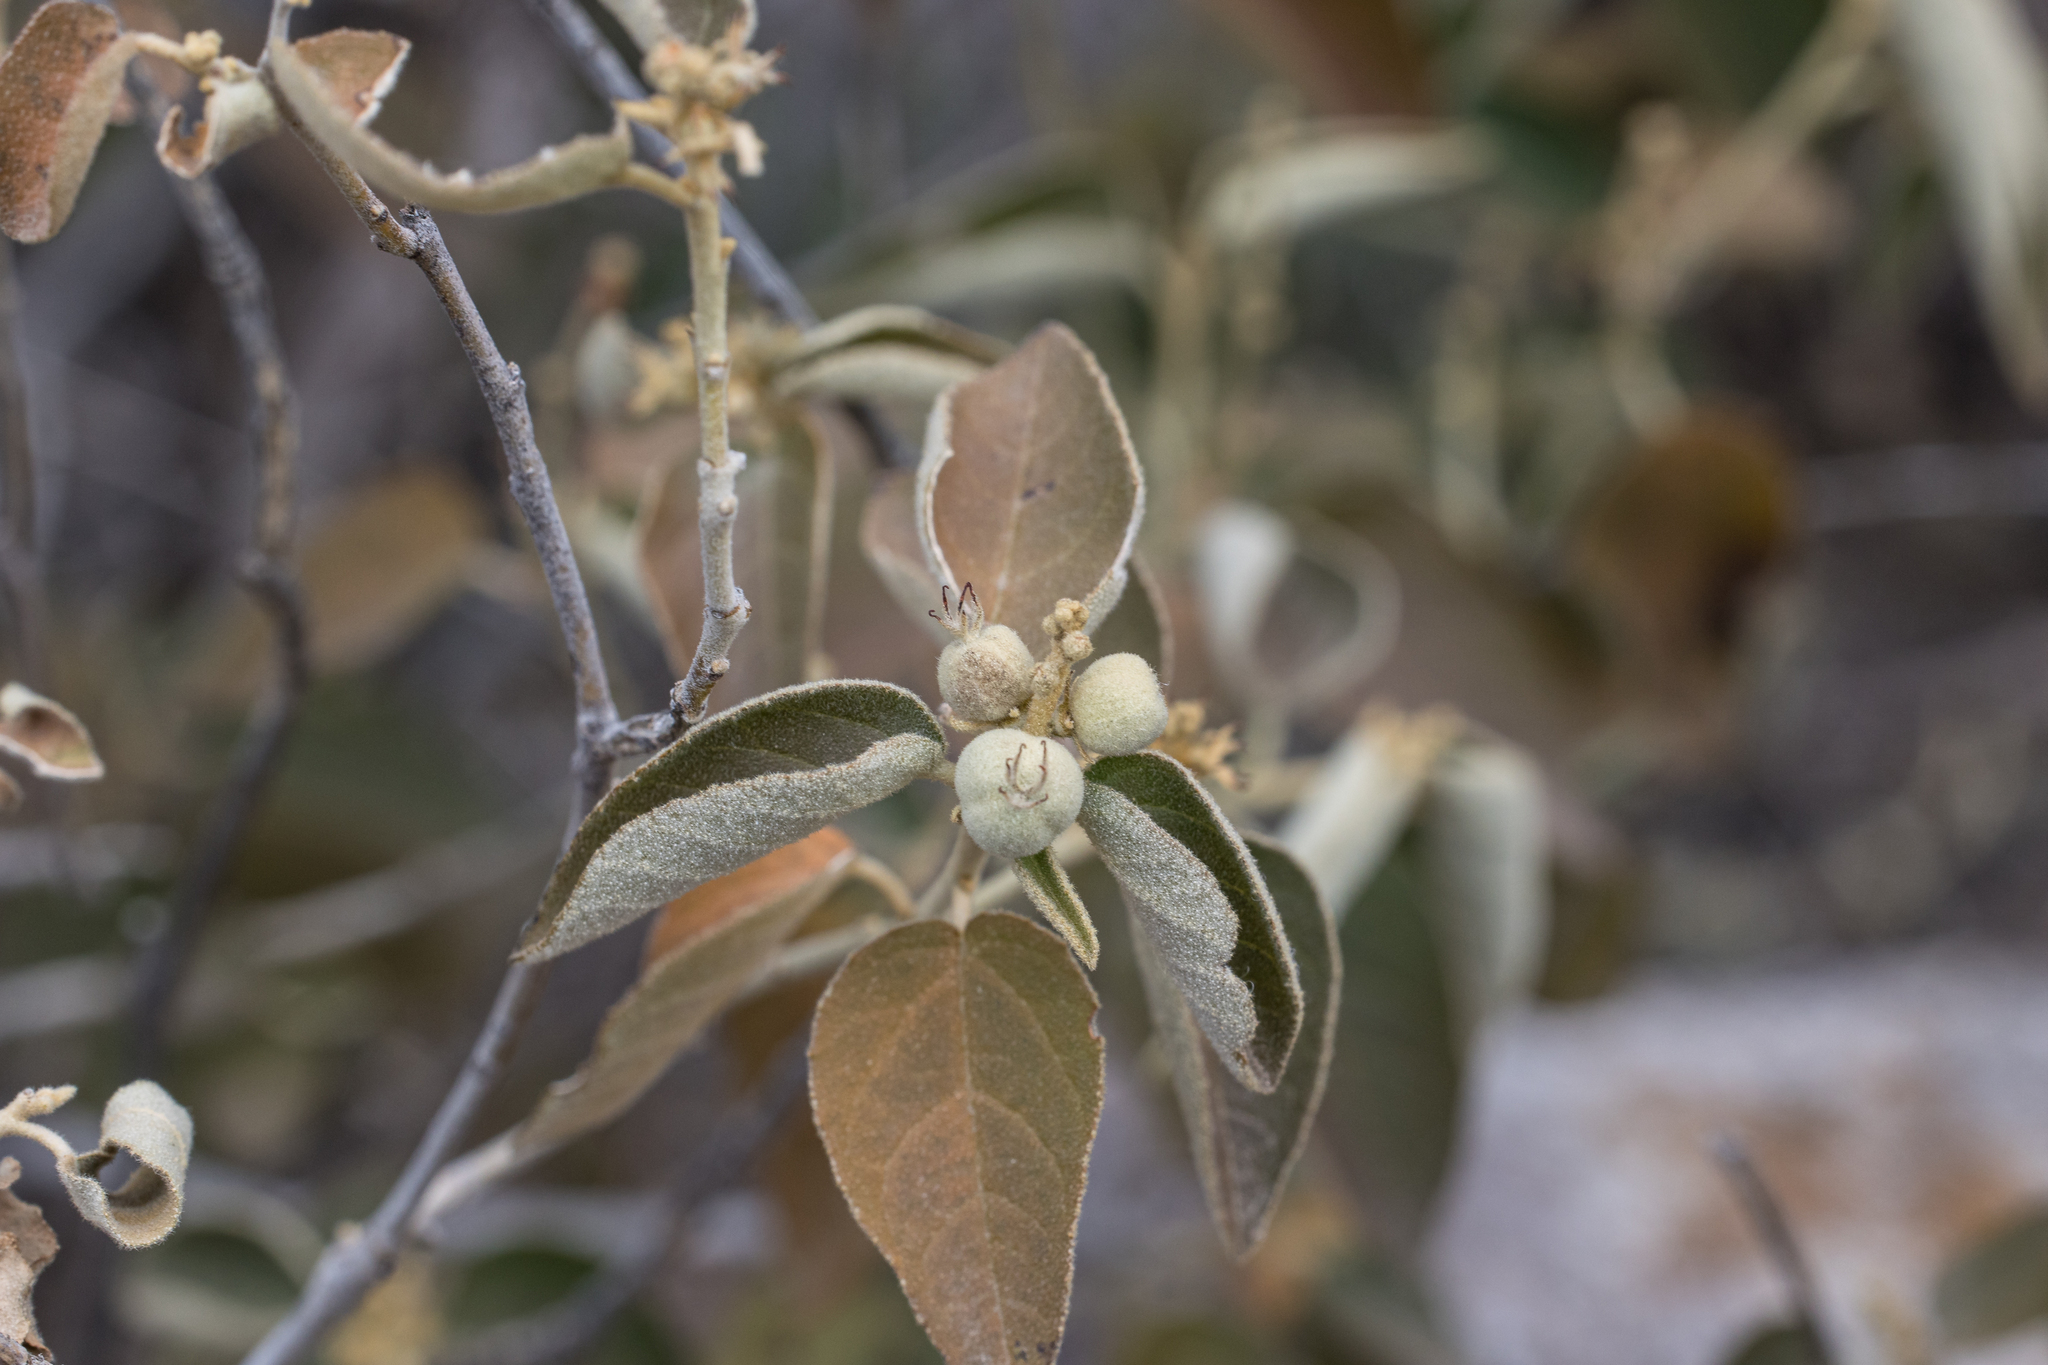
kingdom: Plantae
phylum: Tracheophyta
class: Magnoliopsida
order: Malpighiales
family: Euphorbiaceae
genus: Croton
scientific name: Croton fruticulosus
